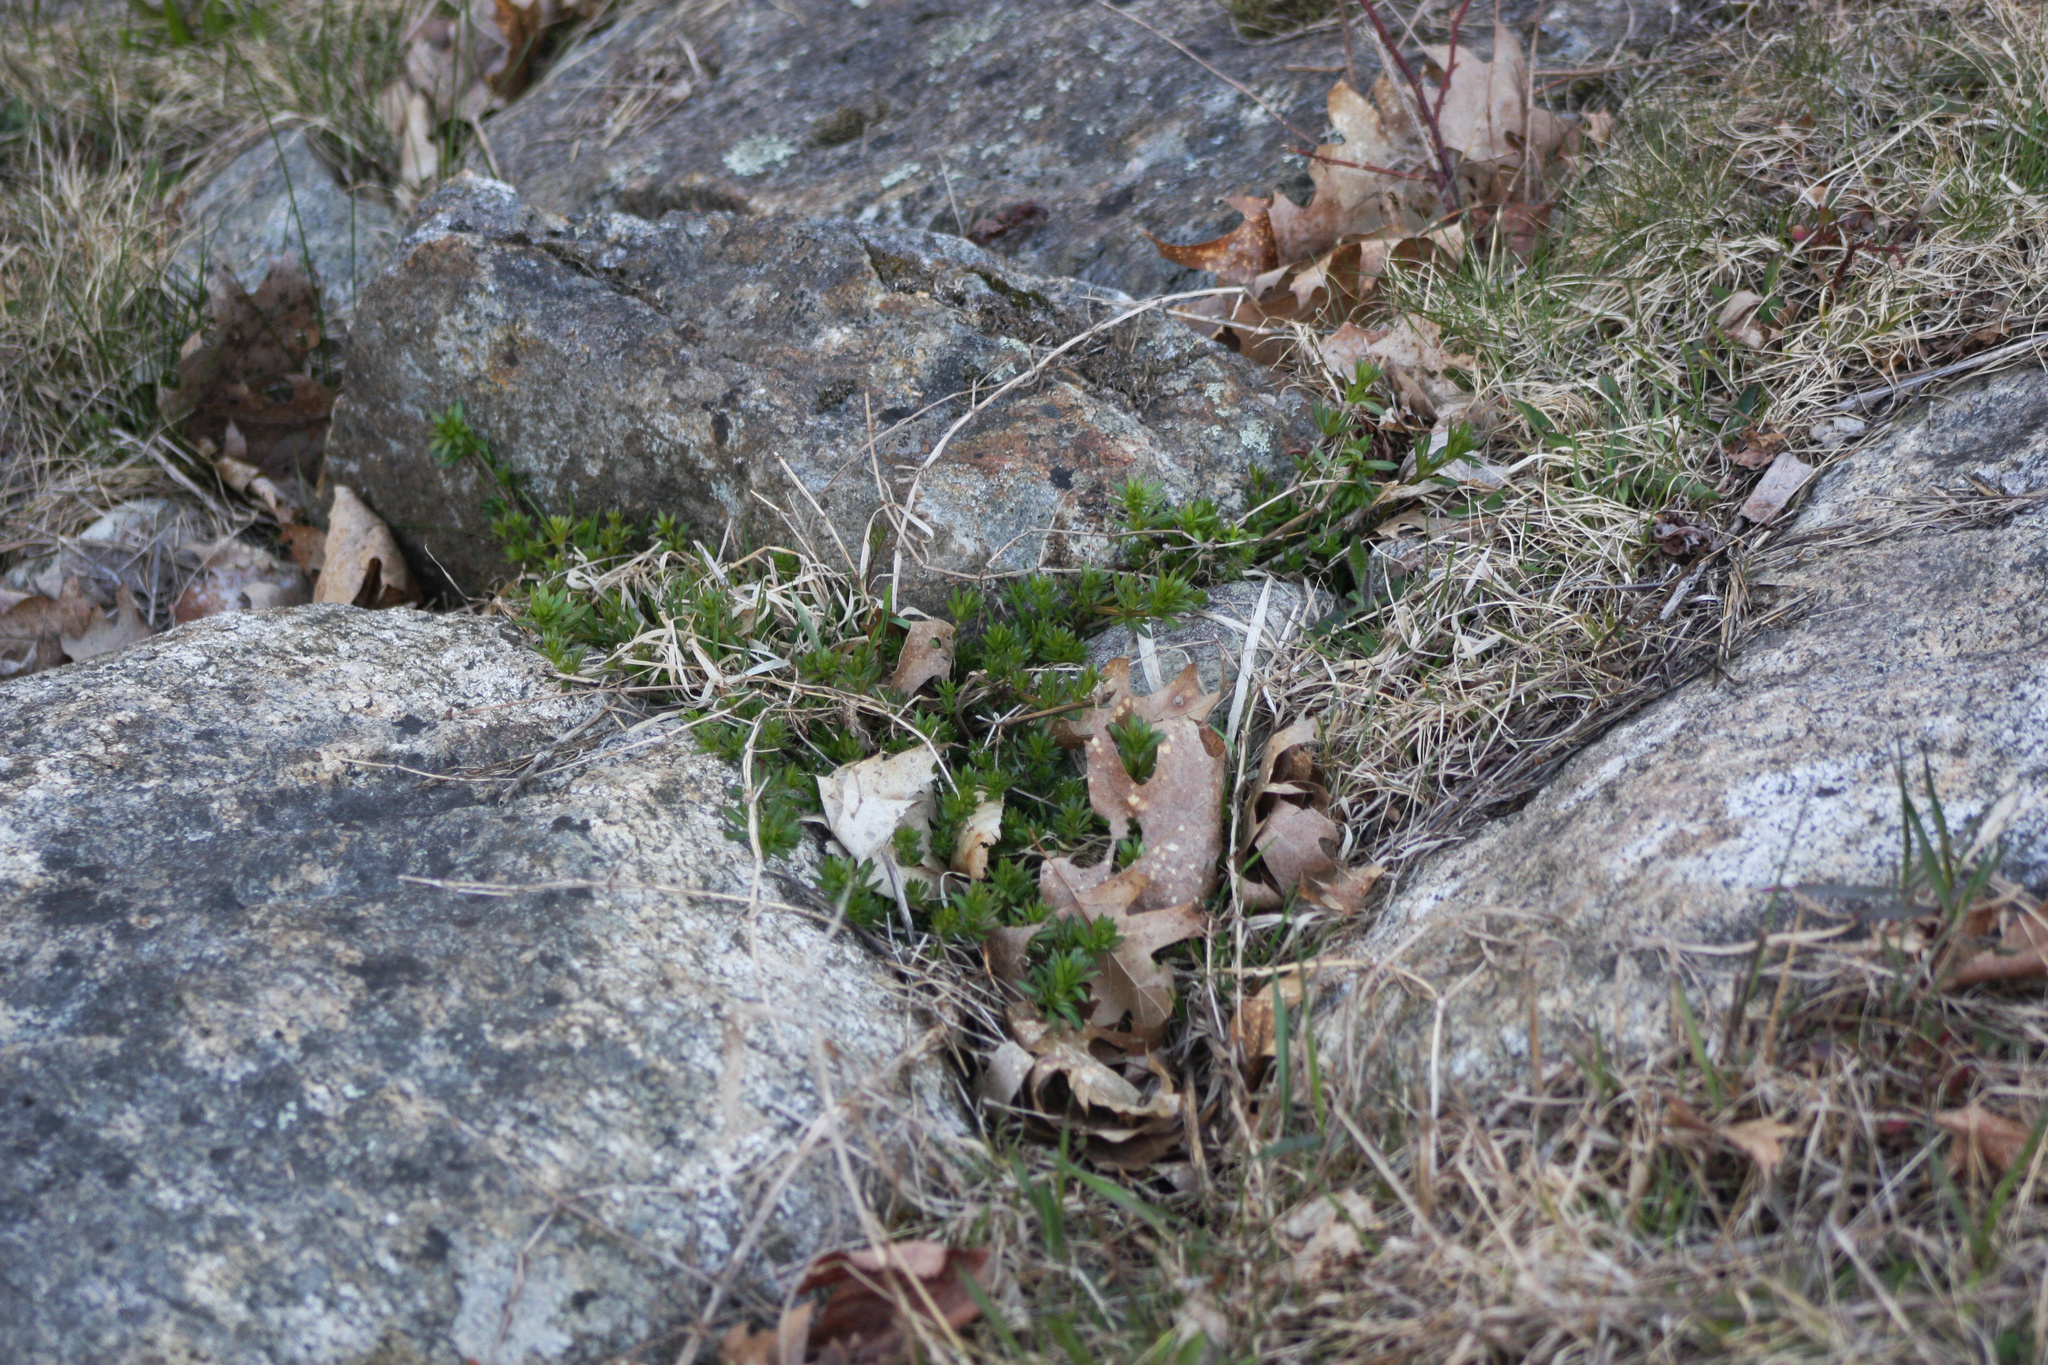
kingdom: Plantae
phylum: Tracheophyta
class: Magnoliopsida
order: Gentianales
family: Rubiaceae
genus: Galium
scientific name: Galium mollugo
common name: Hedge bedstraw
